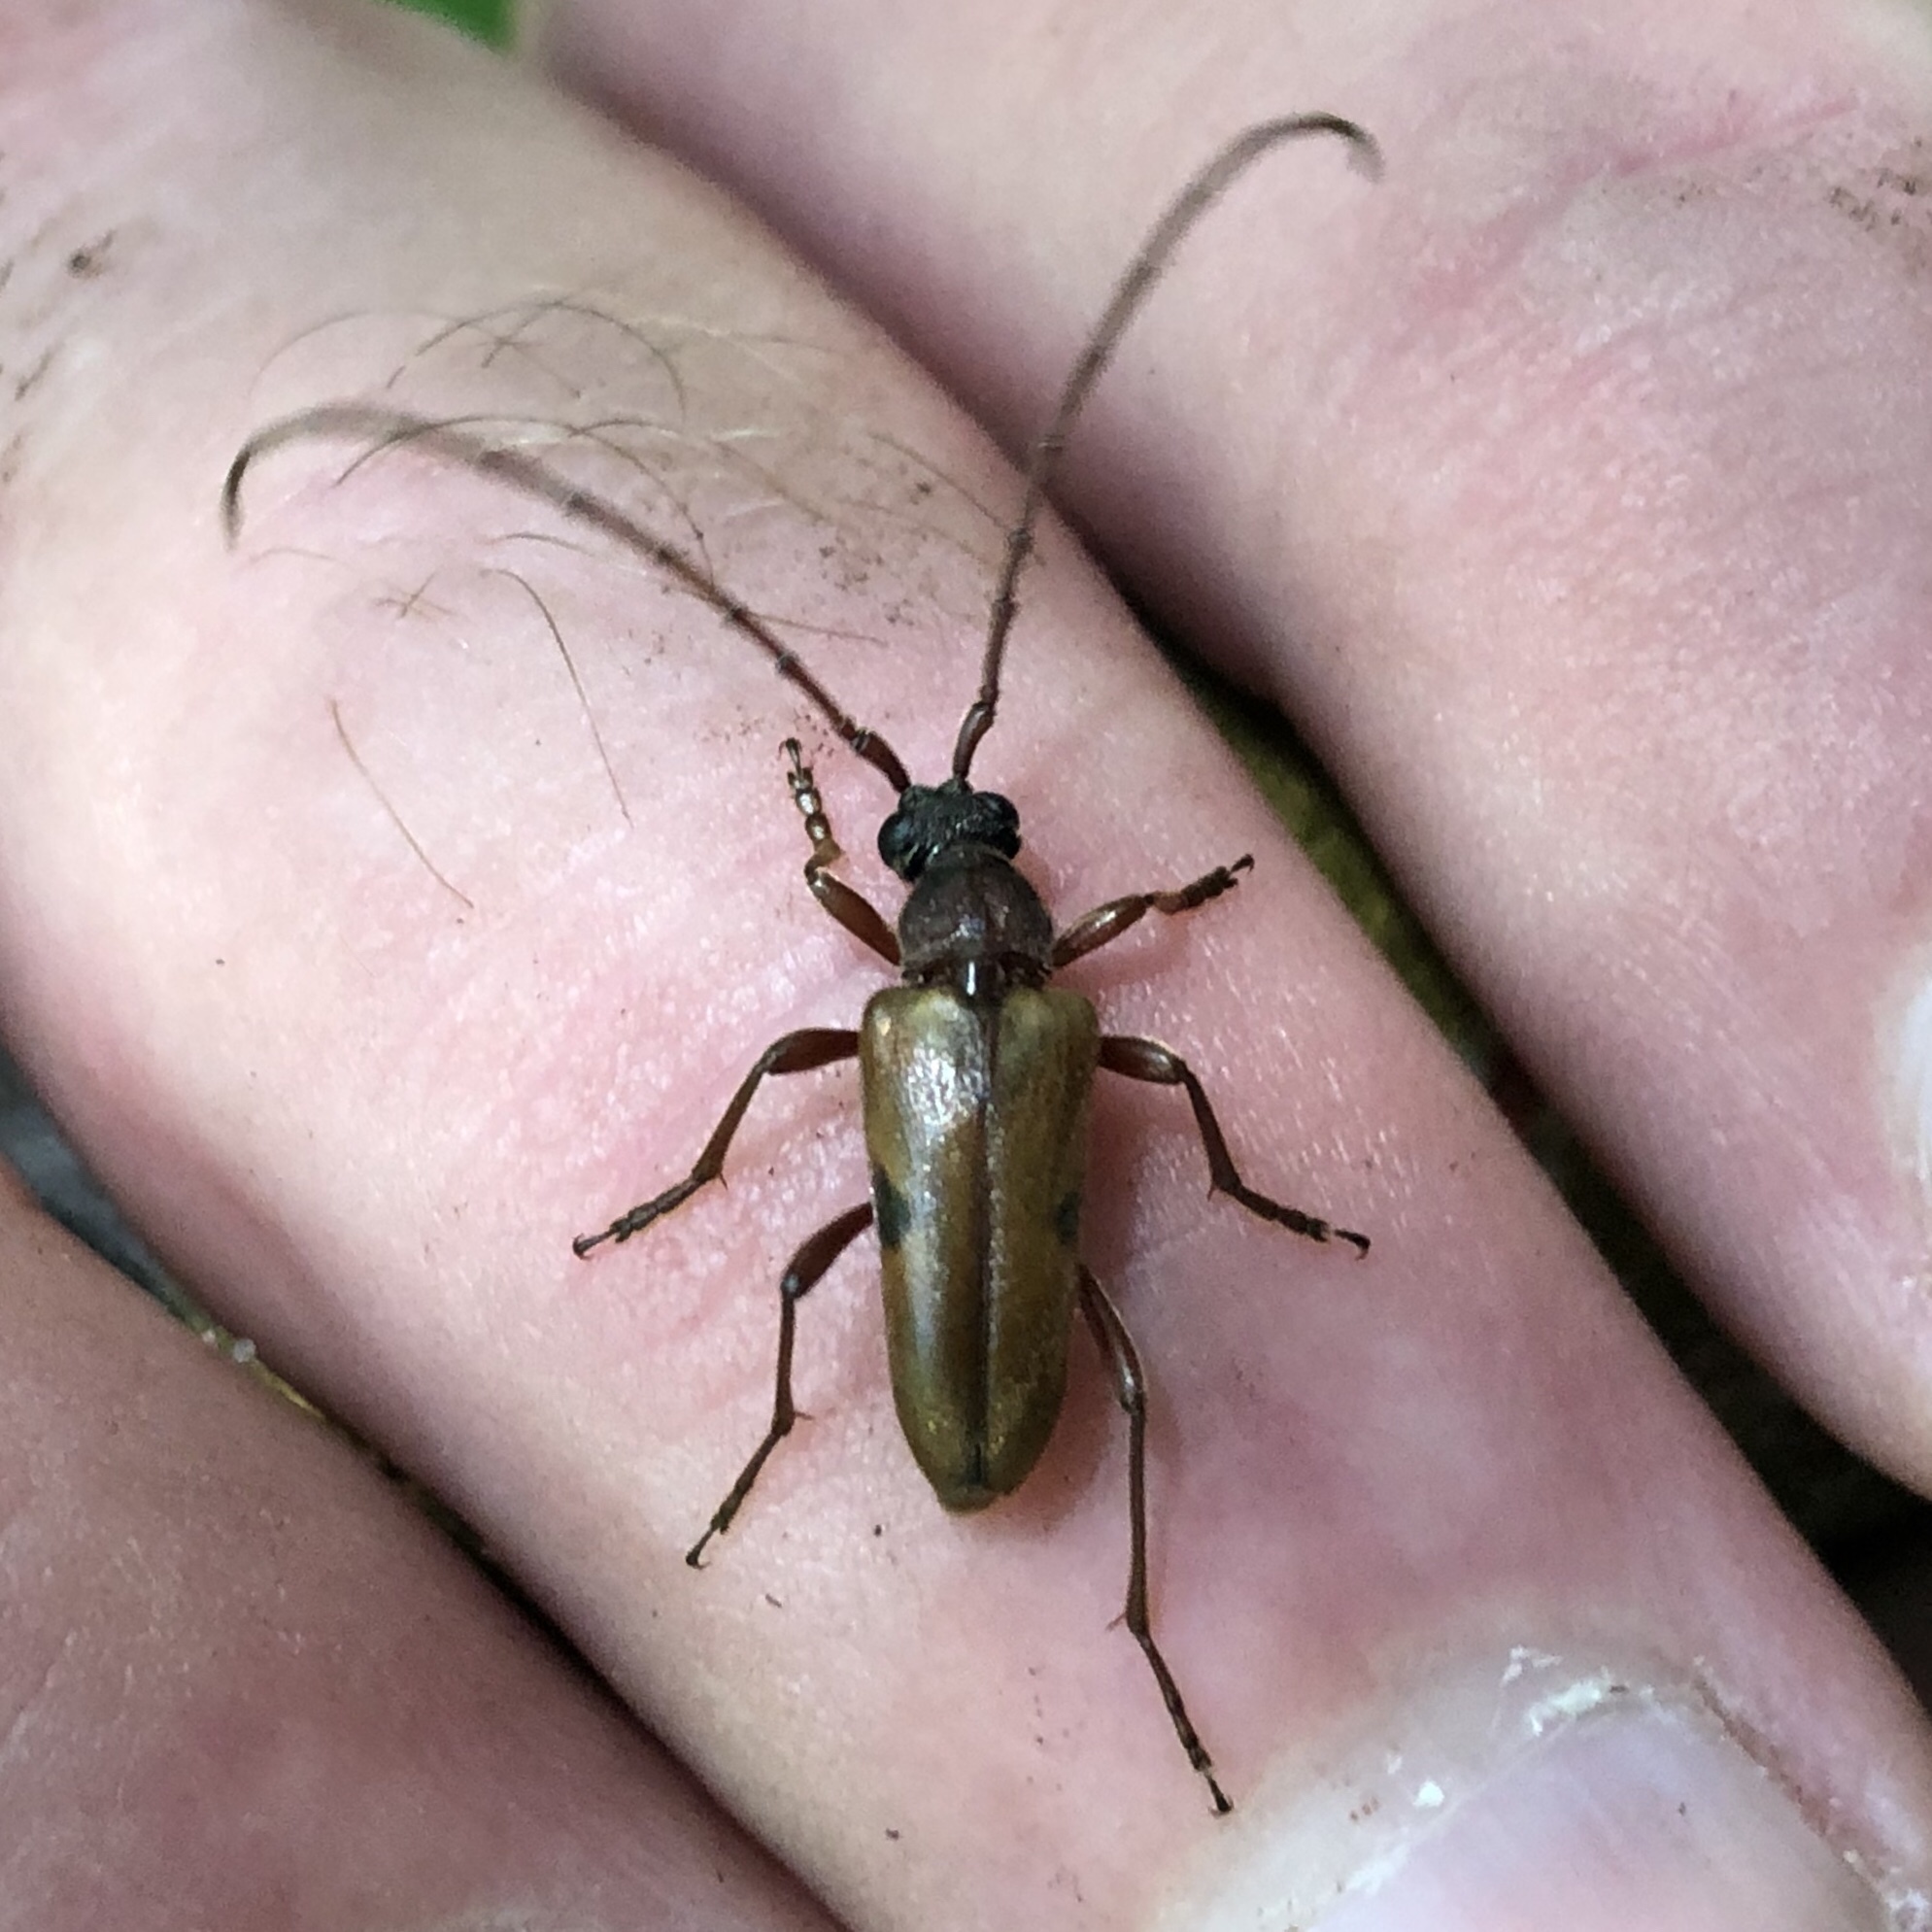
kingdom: Animalia
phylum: Arthropoda
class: Insecta
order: Coleoptera
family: Cerambycidae
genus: Lepturopsis
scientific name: Lepturopsis biforis
